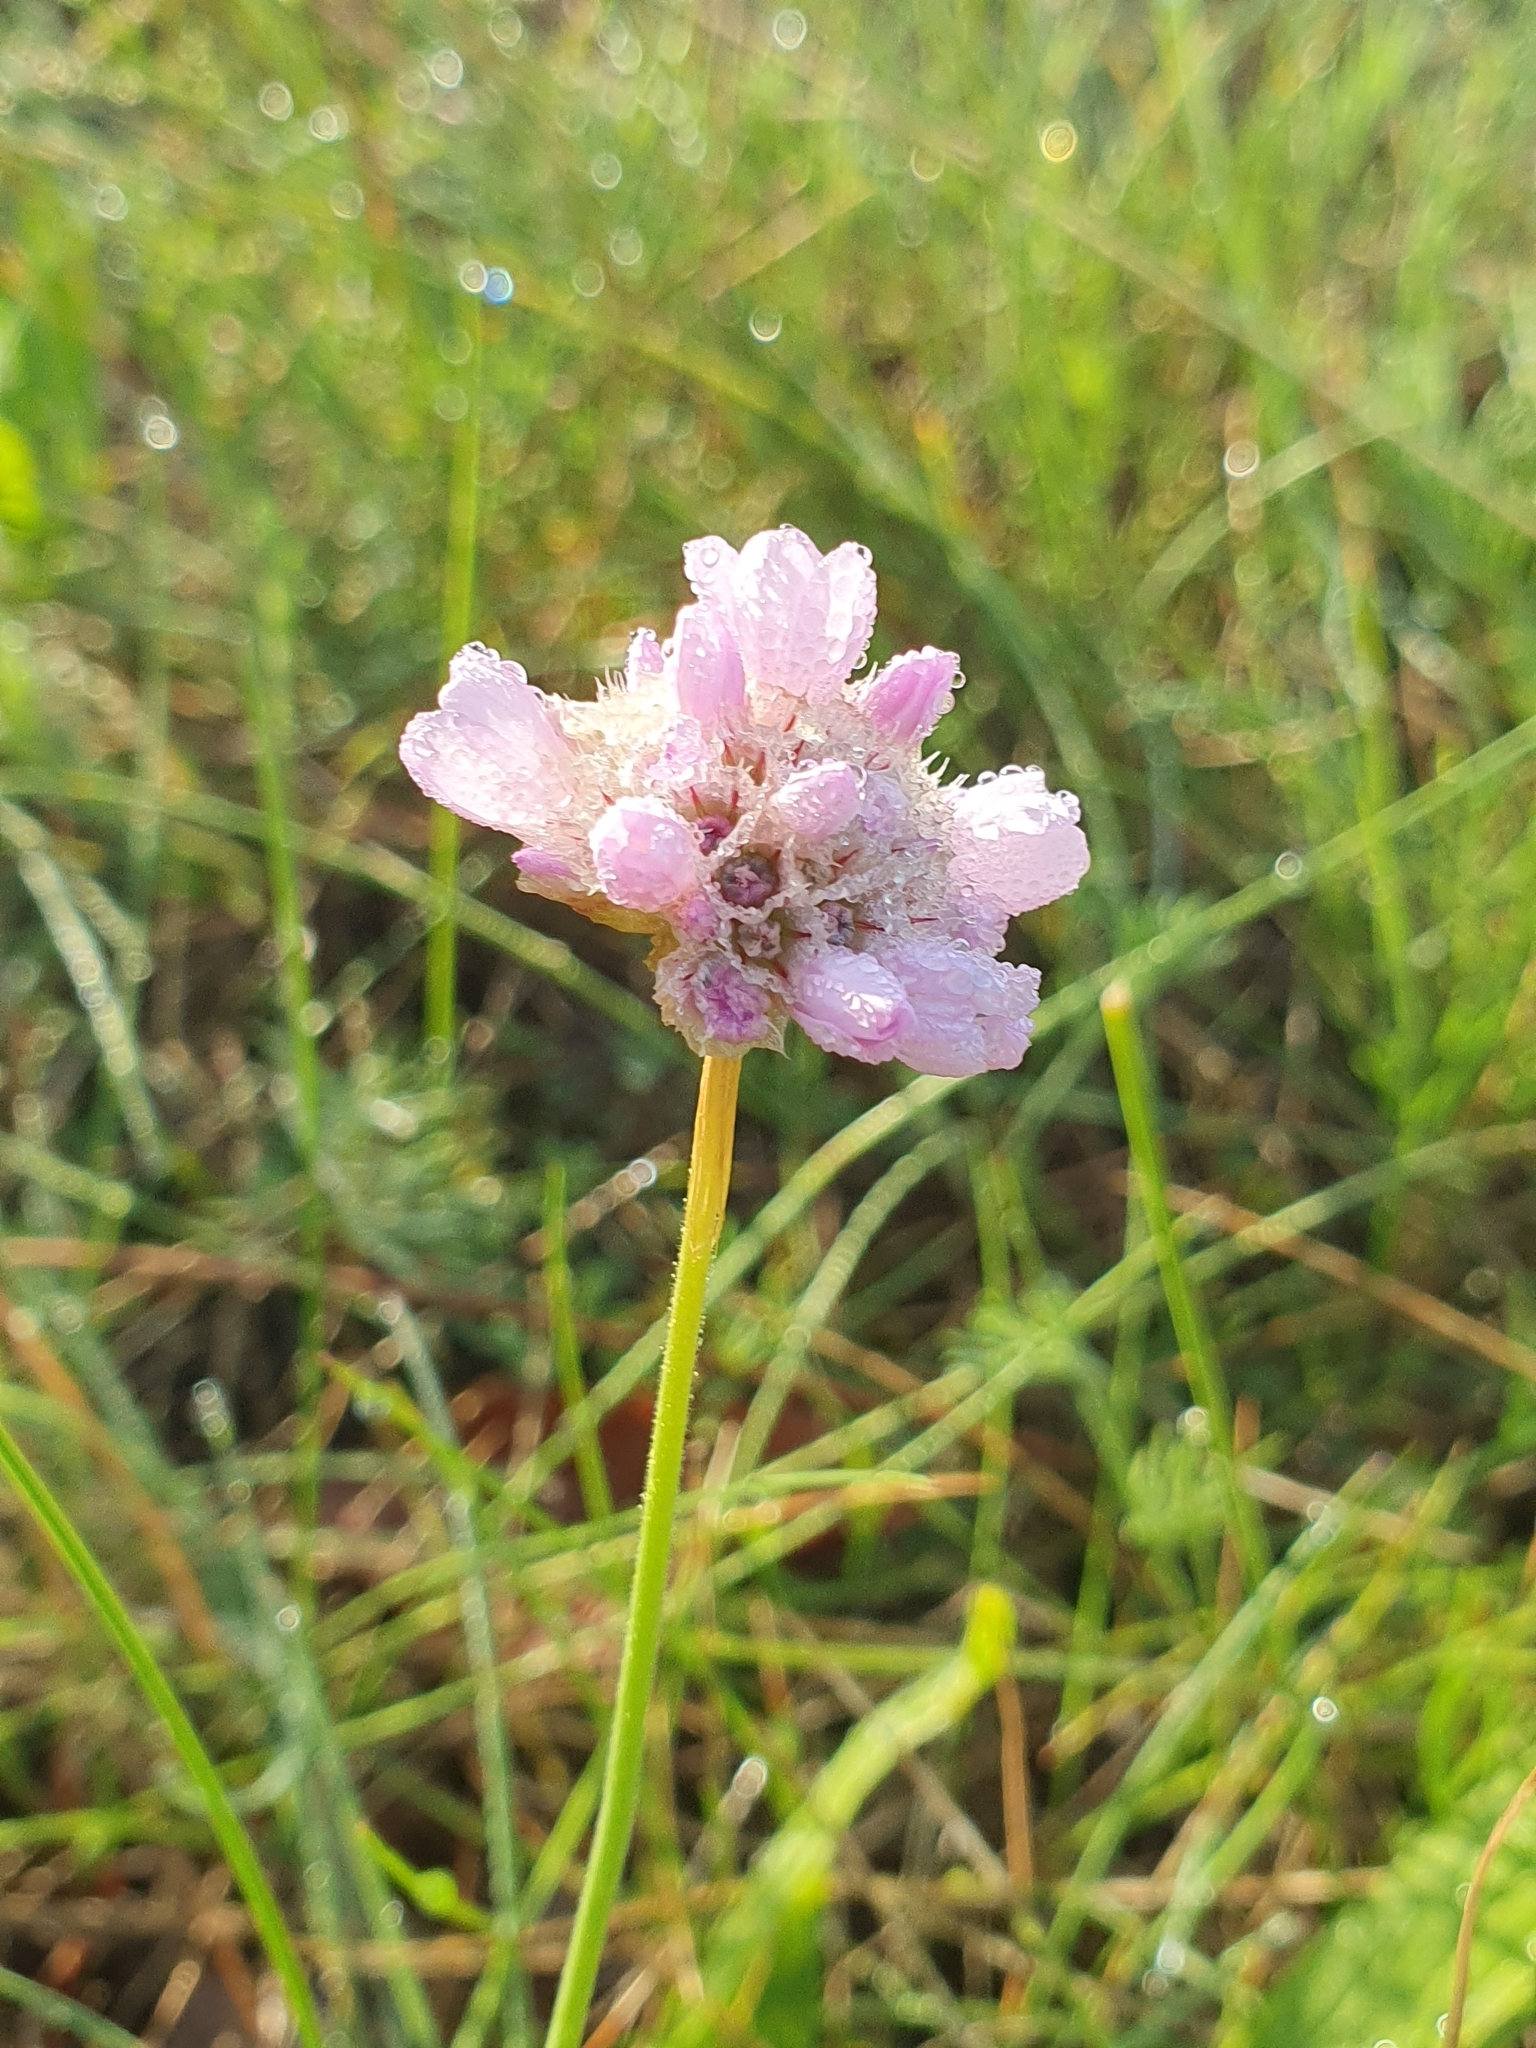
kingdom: Plantae
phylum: Tracheophyta
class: Magnoliopsida
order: Caryophyllales
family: Plumbaginaceae
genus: Armeria
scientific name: Armeria maritima
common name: Thrift
